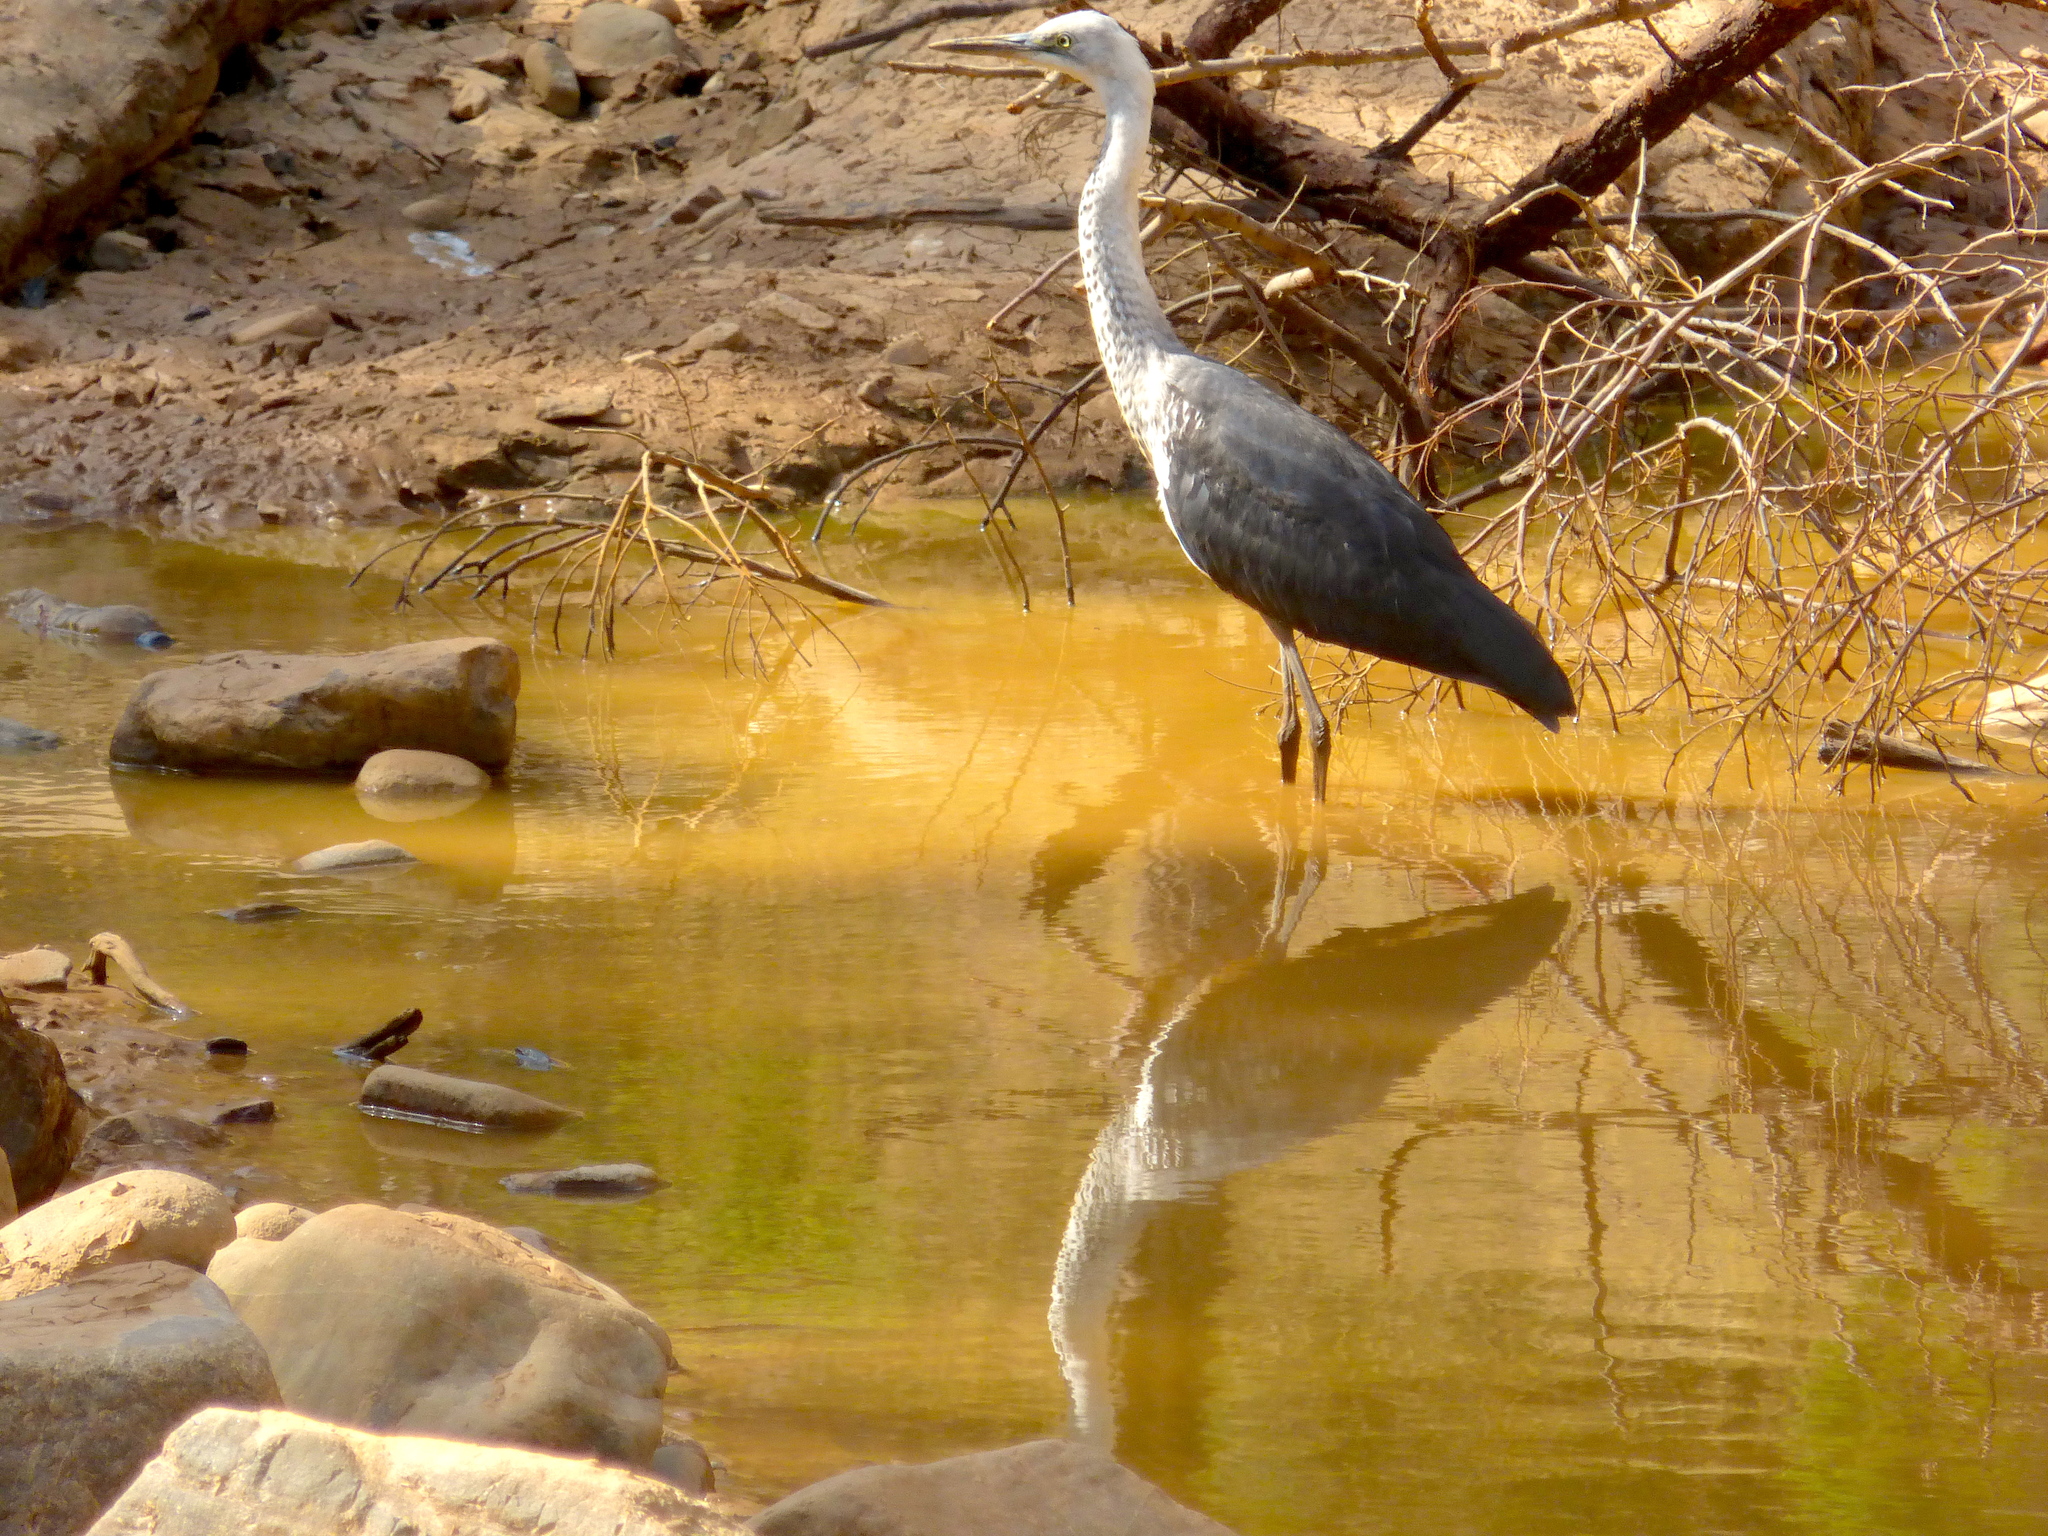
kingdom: Animalia
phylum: Chordata
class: Aves
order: Pelecaniformes
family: Ardeidae
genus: Ardea
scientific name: Ardea pacifica
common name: White-necked heron
